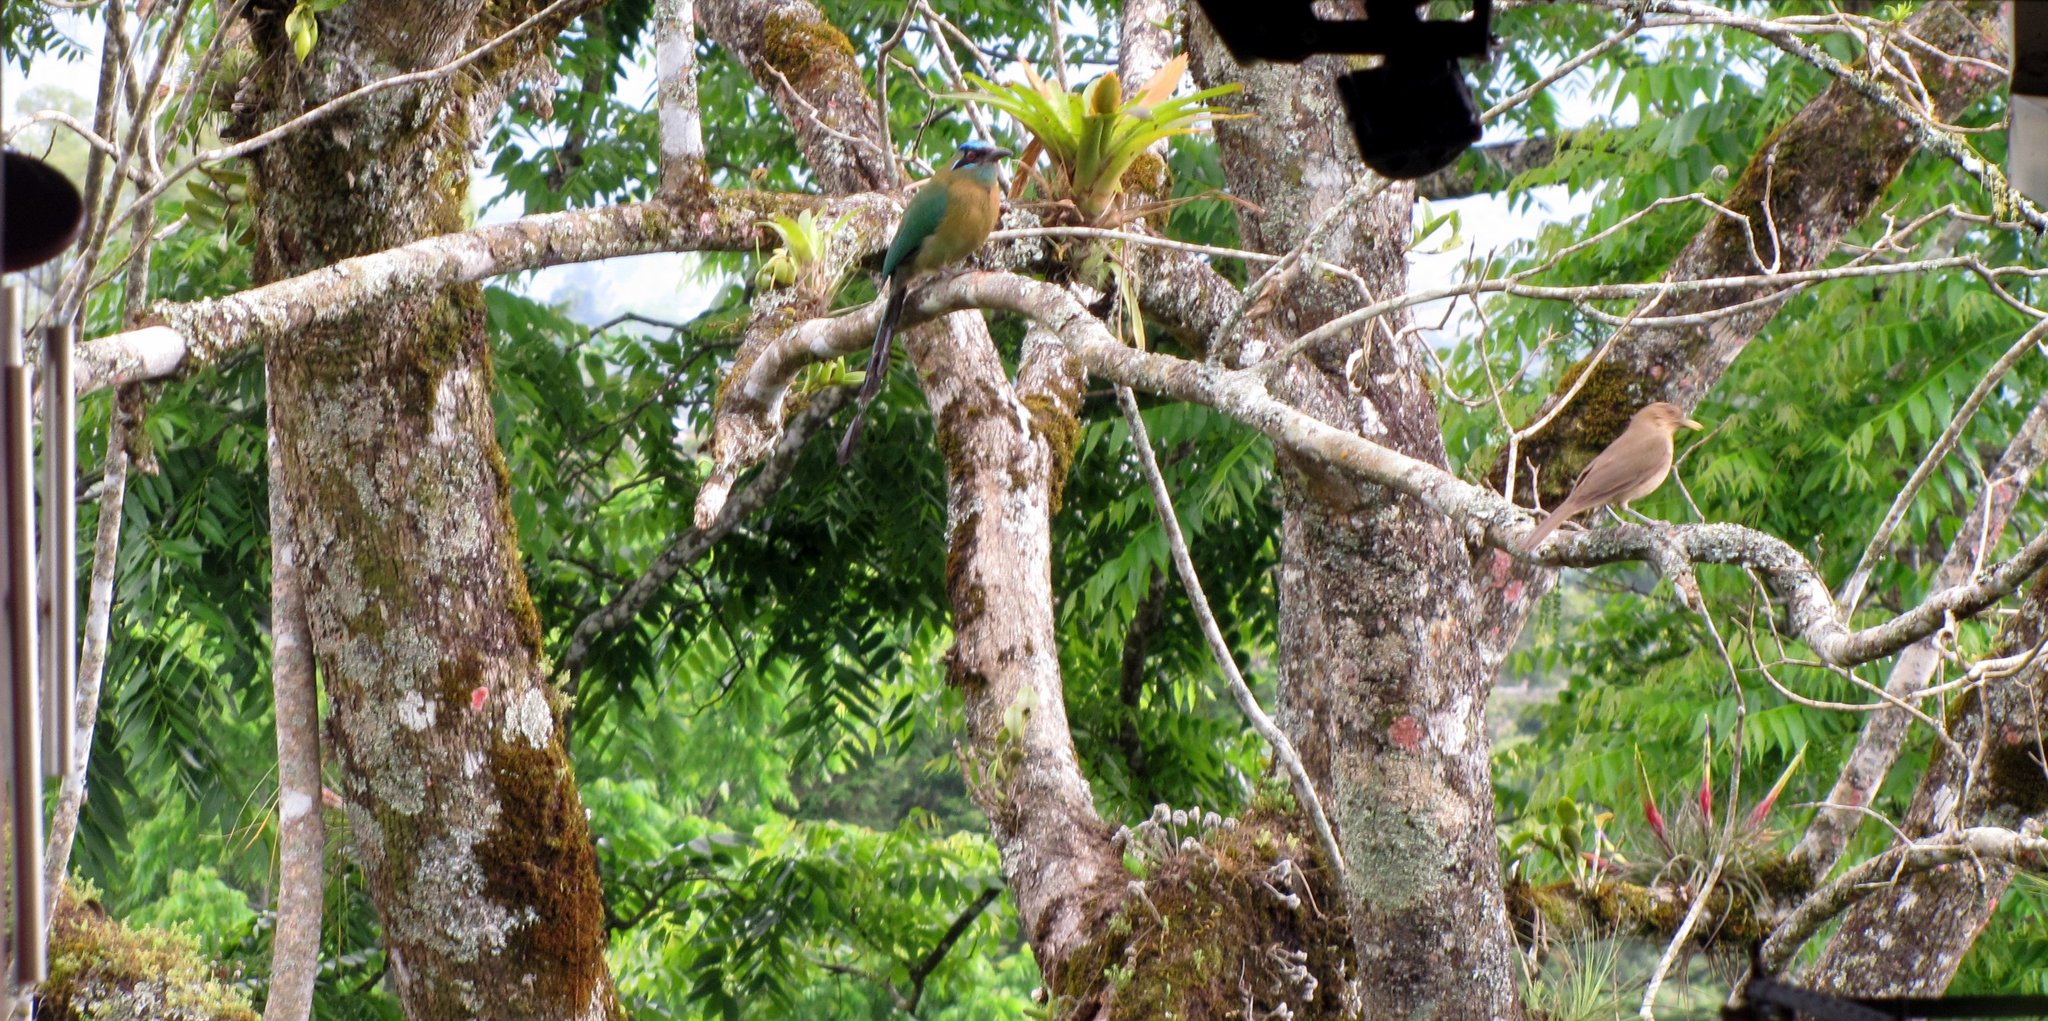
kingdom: Animalia
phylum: Chordata
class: Aves
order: Coraciiformes
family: Momotidae
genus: Momotus
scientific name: Momotus lessonii
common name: Lesson's motmot
